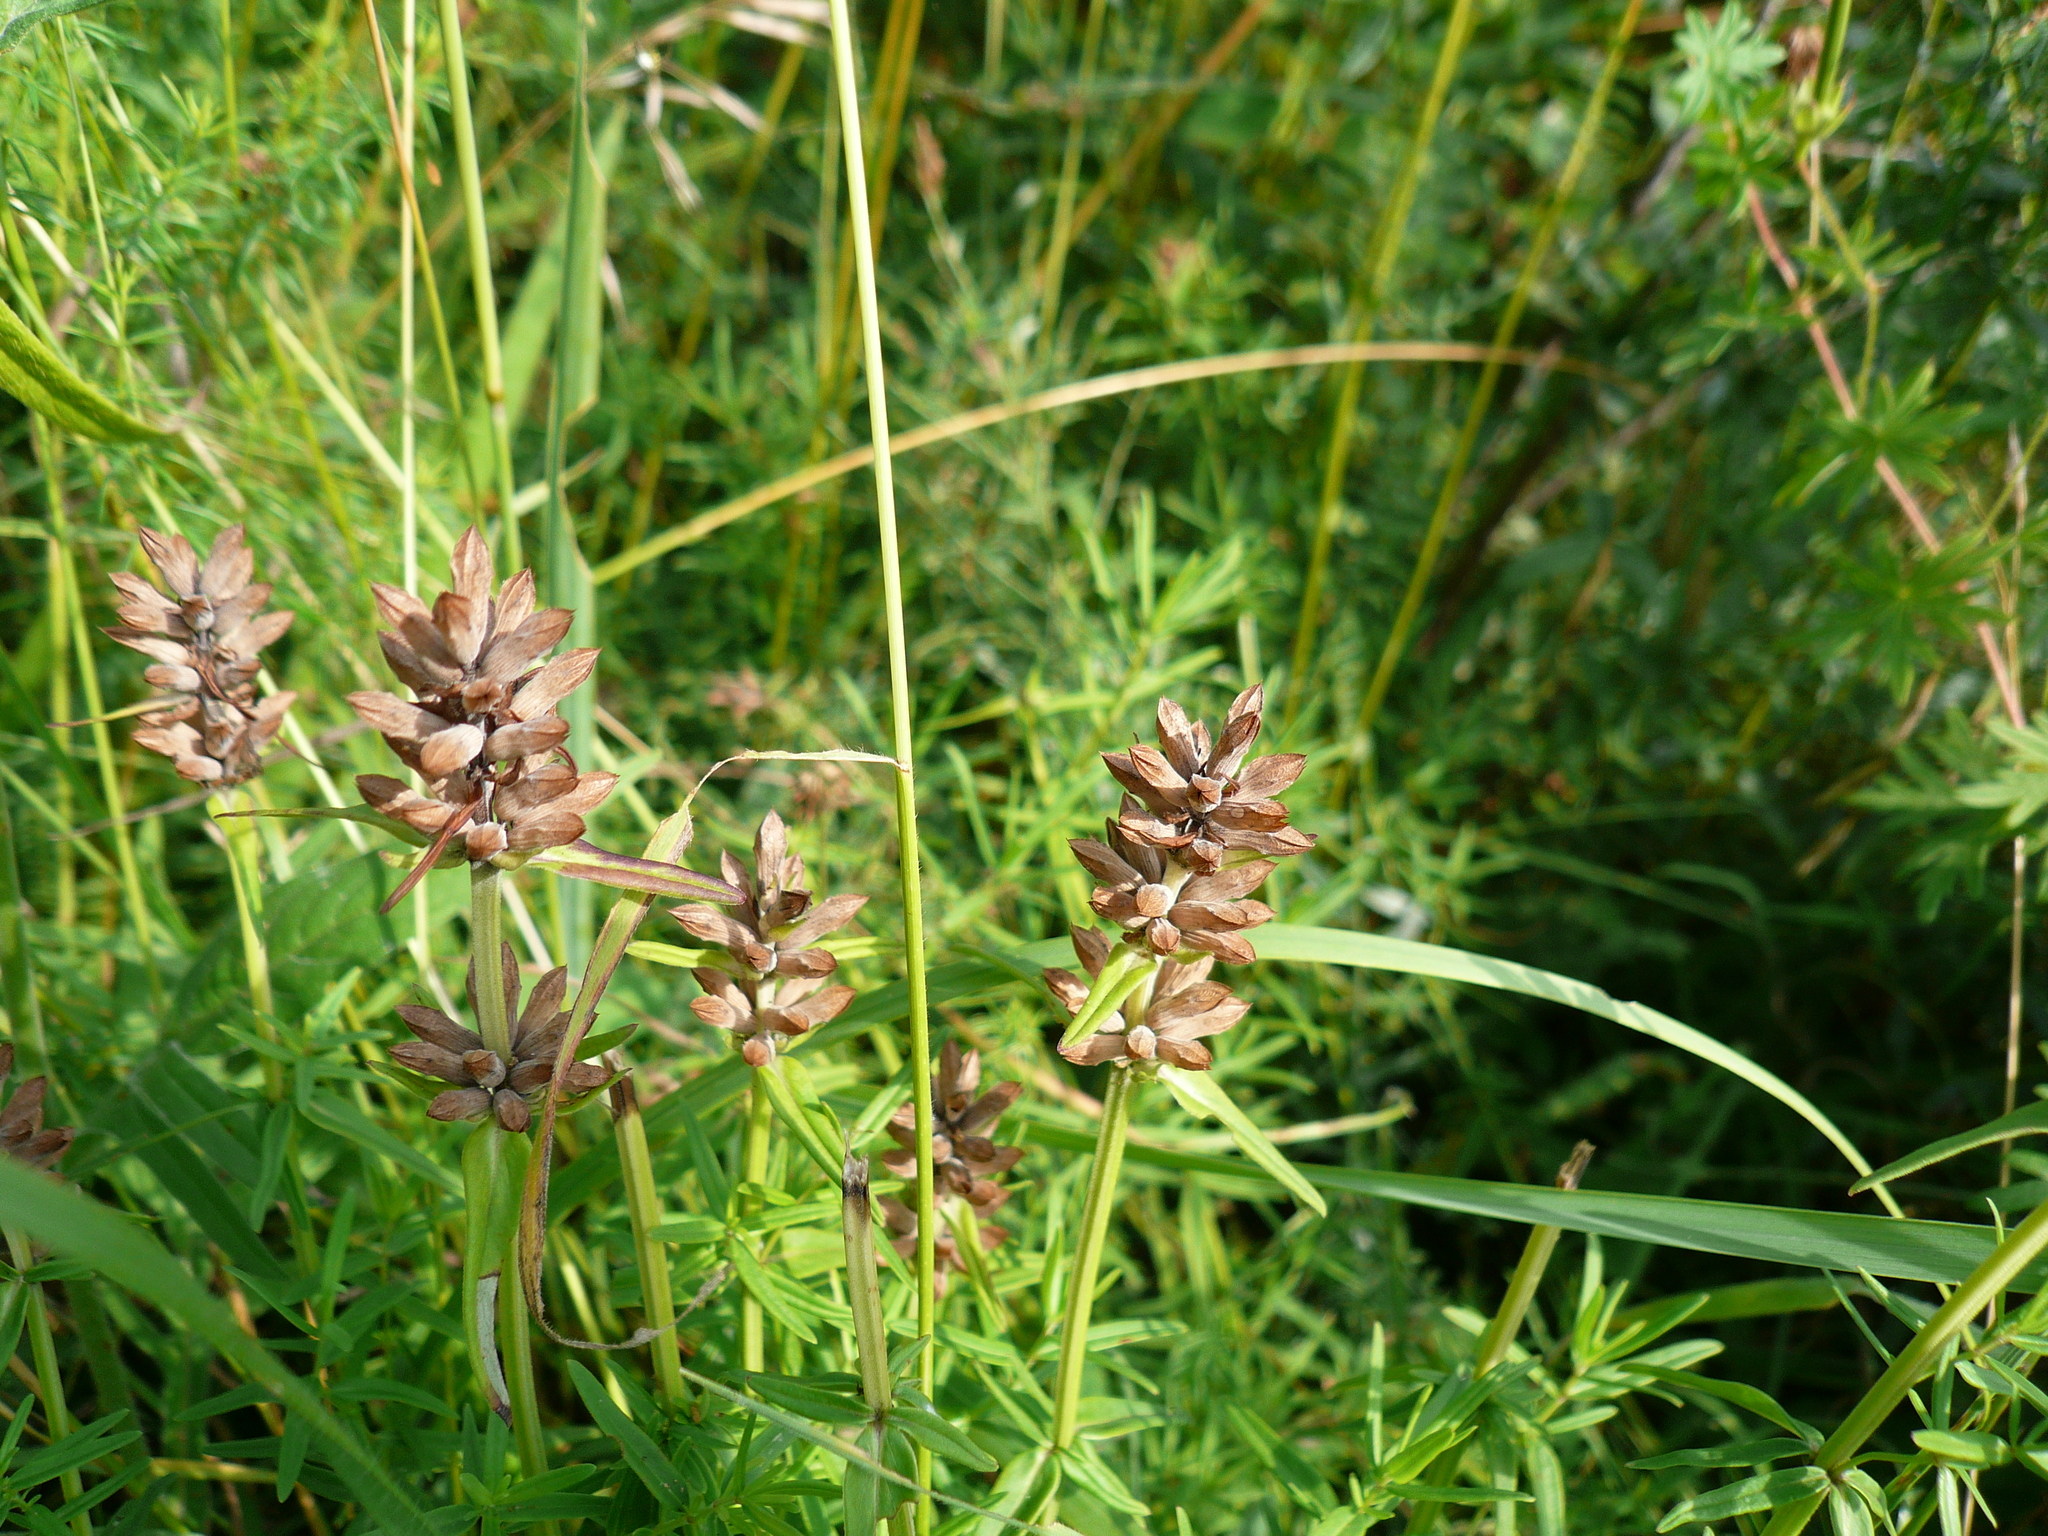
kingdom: Plantae
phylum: Tracheophyta
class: Magnoliopsida
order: Lamiales
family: Lamiaceae
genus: Dracocephalum
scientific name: Dracocephalum ruyschiana
